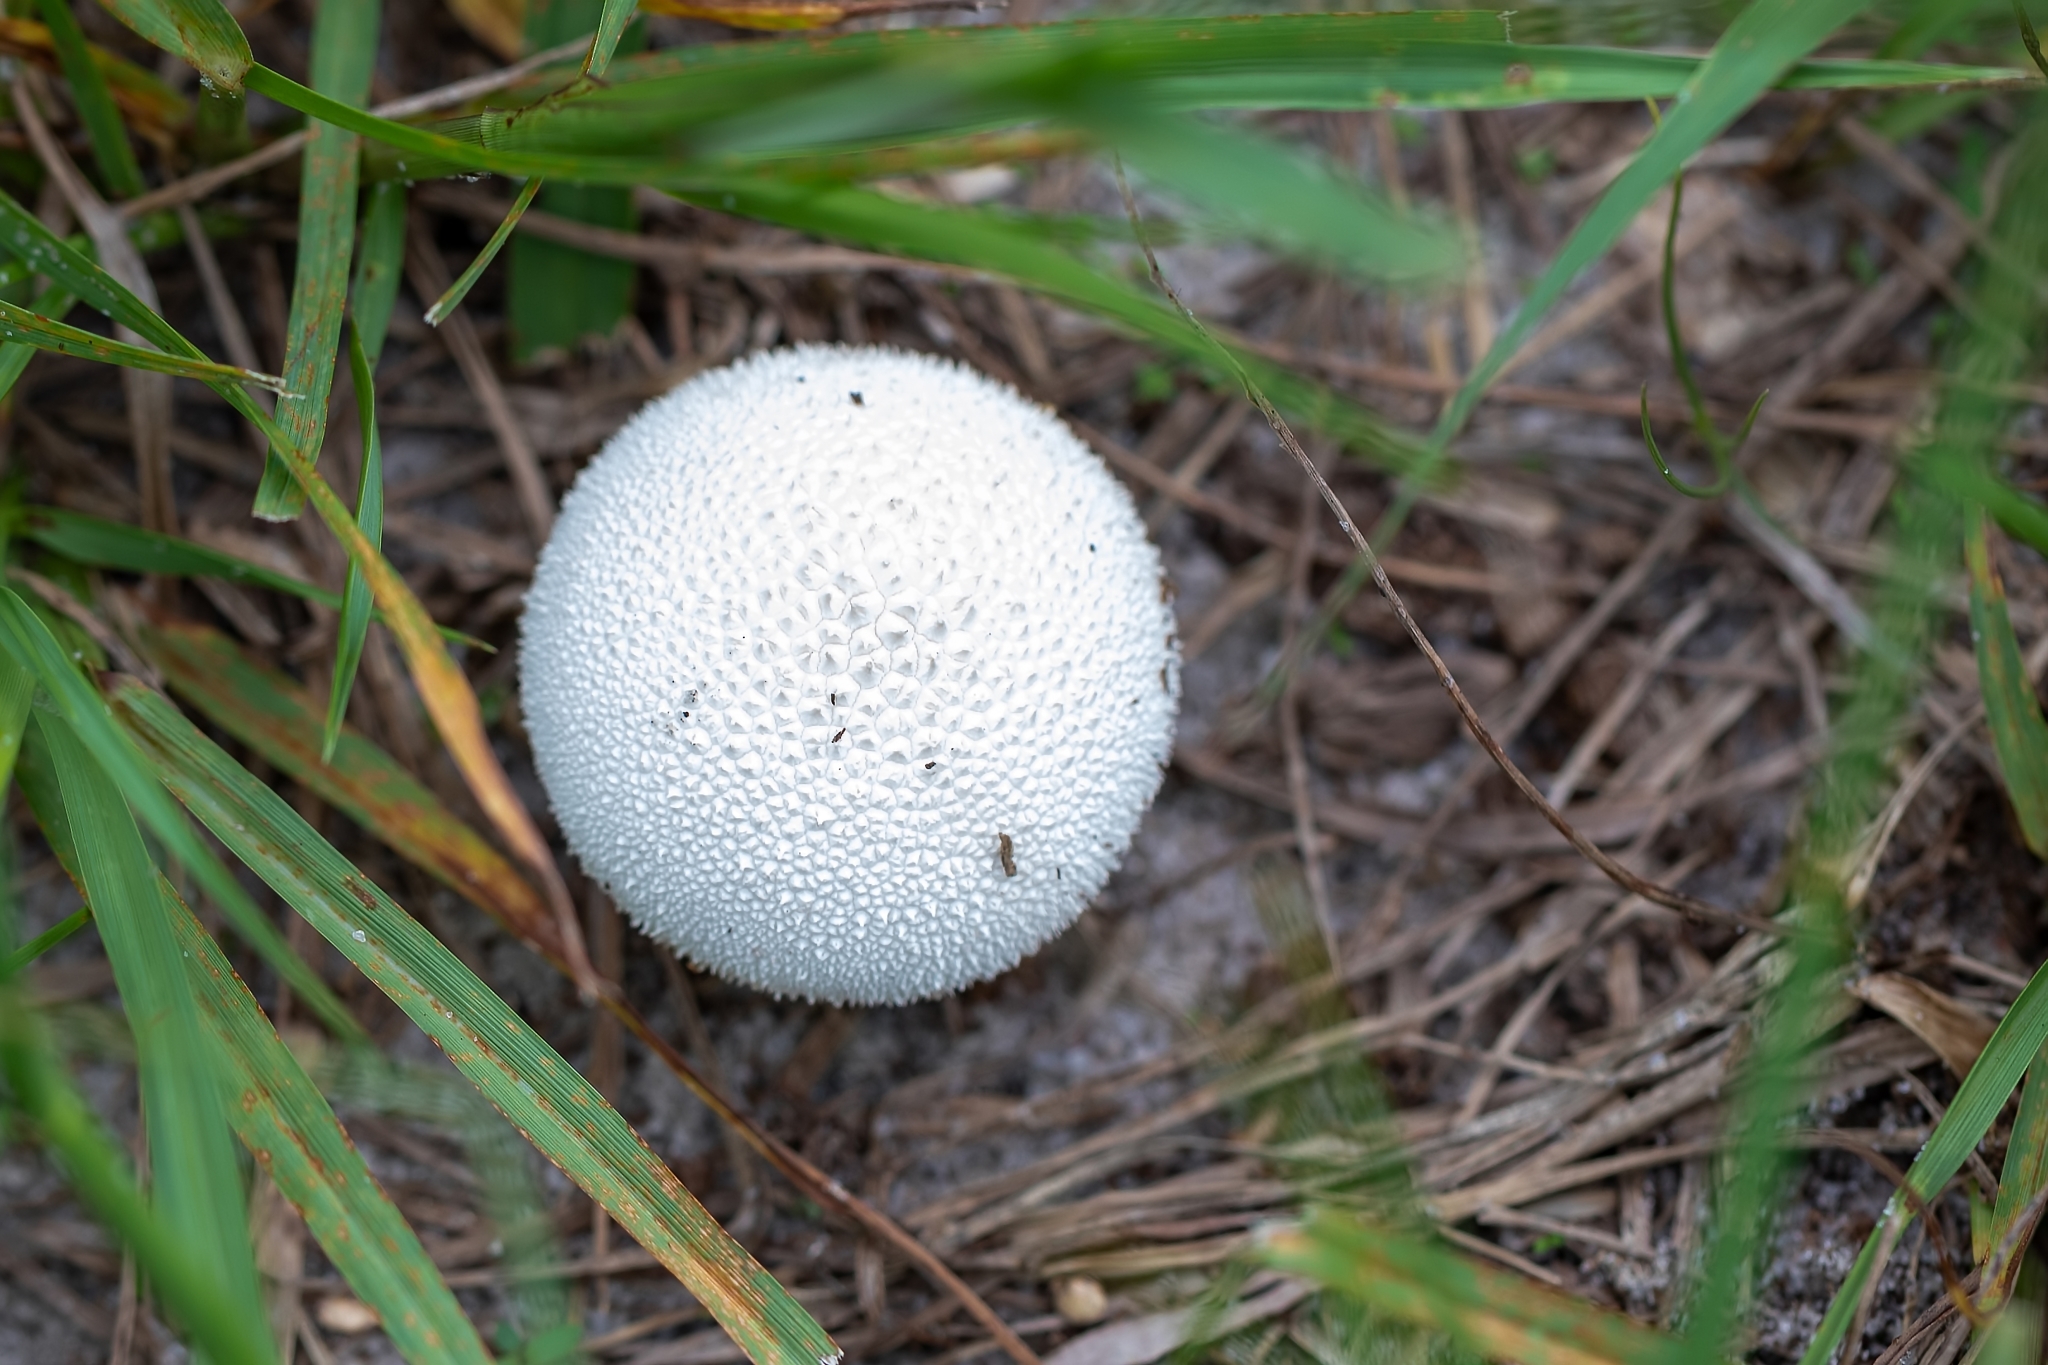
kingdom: Fungi
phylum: Basidiomycota
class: Agaricomycetes
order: Agaricales
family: Agaricaceae
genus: Lycoperdon
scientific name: Lycoperdon marginatum
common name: Peeling puffball
